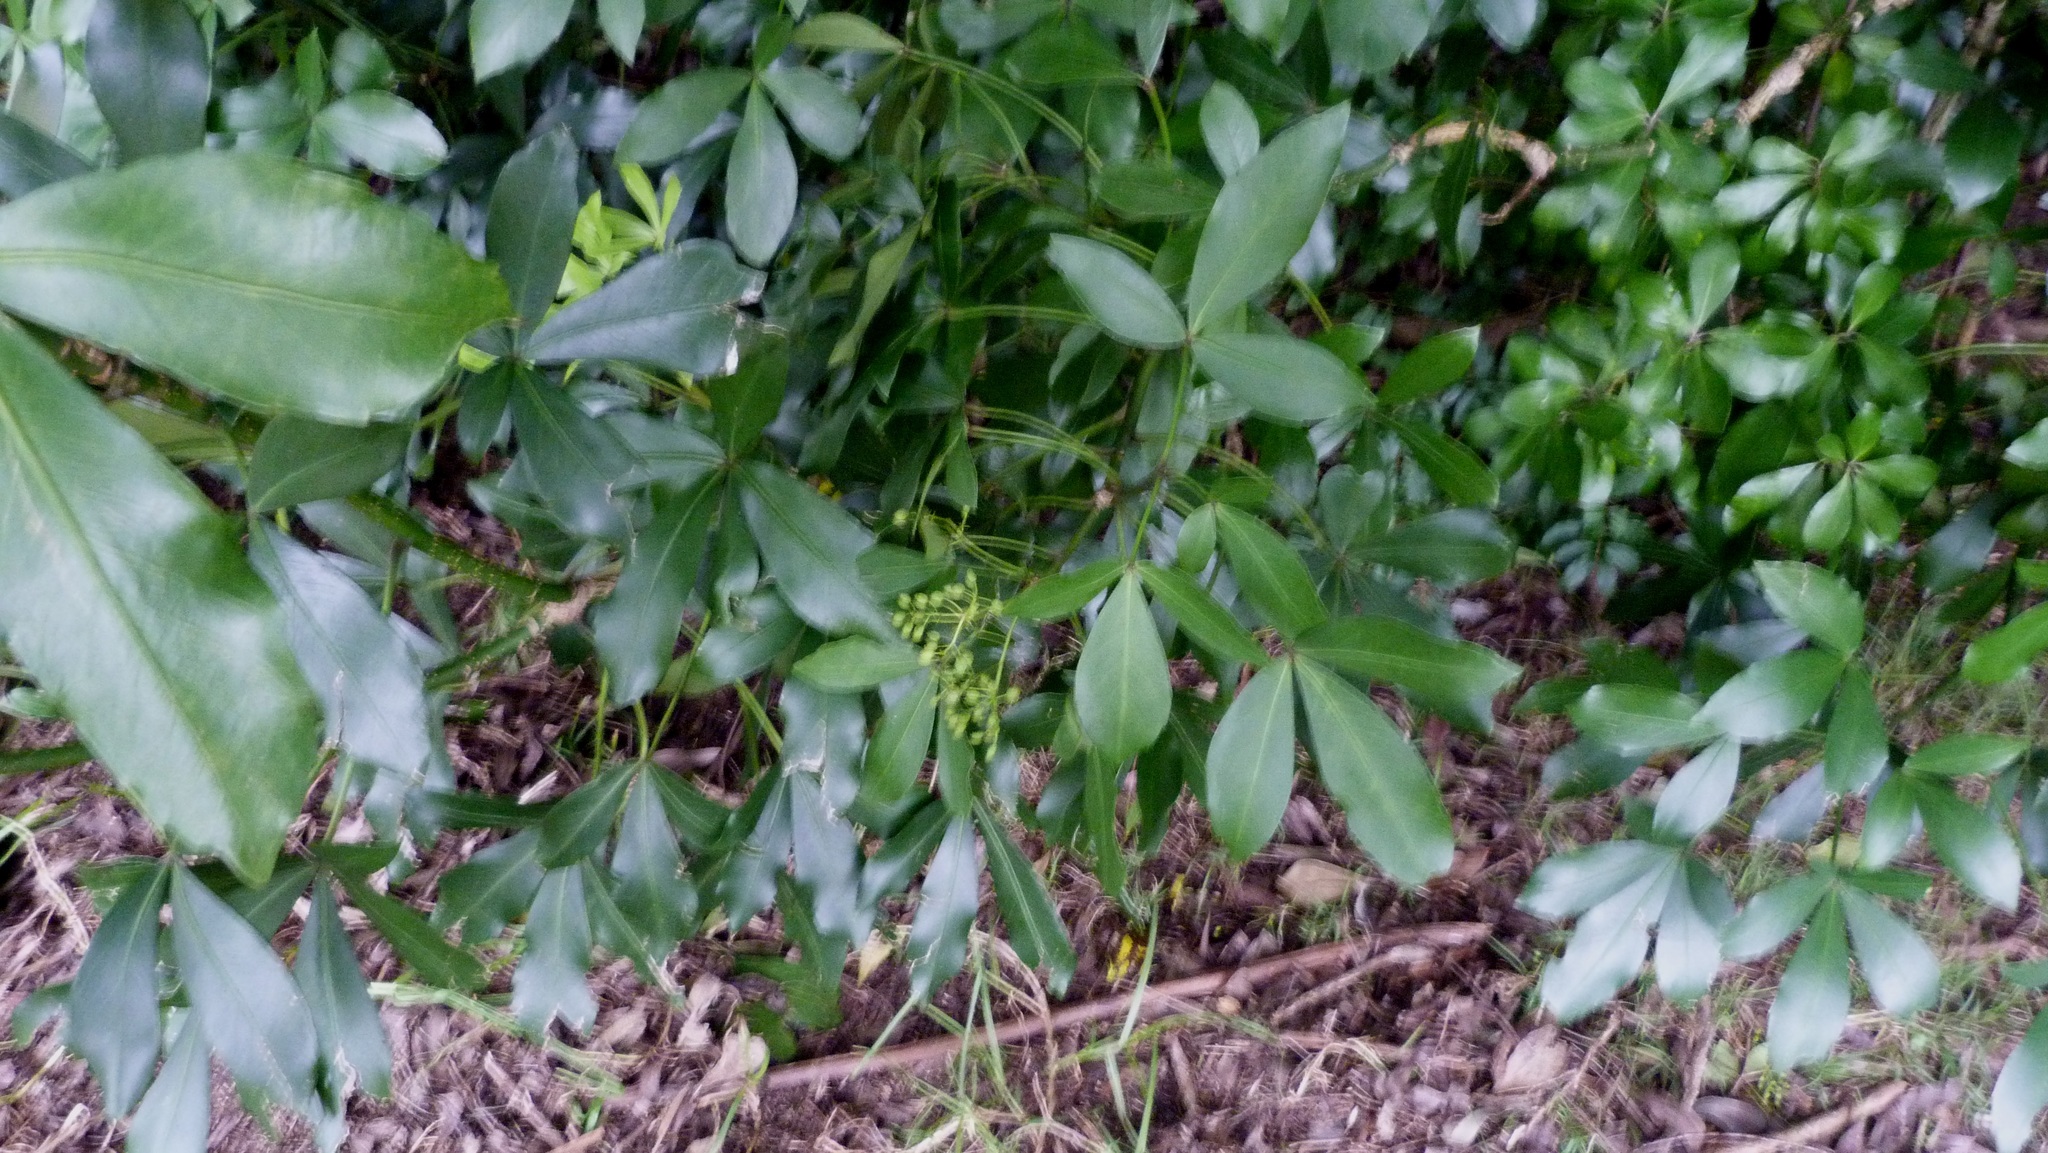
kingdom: Plantae
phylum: Tracheophyta
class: Magnoliopsida
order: Apiales
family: Araliaceae
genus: Pseudopanax
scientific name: Pseudopanax lessonii
